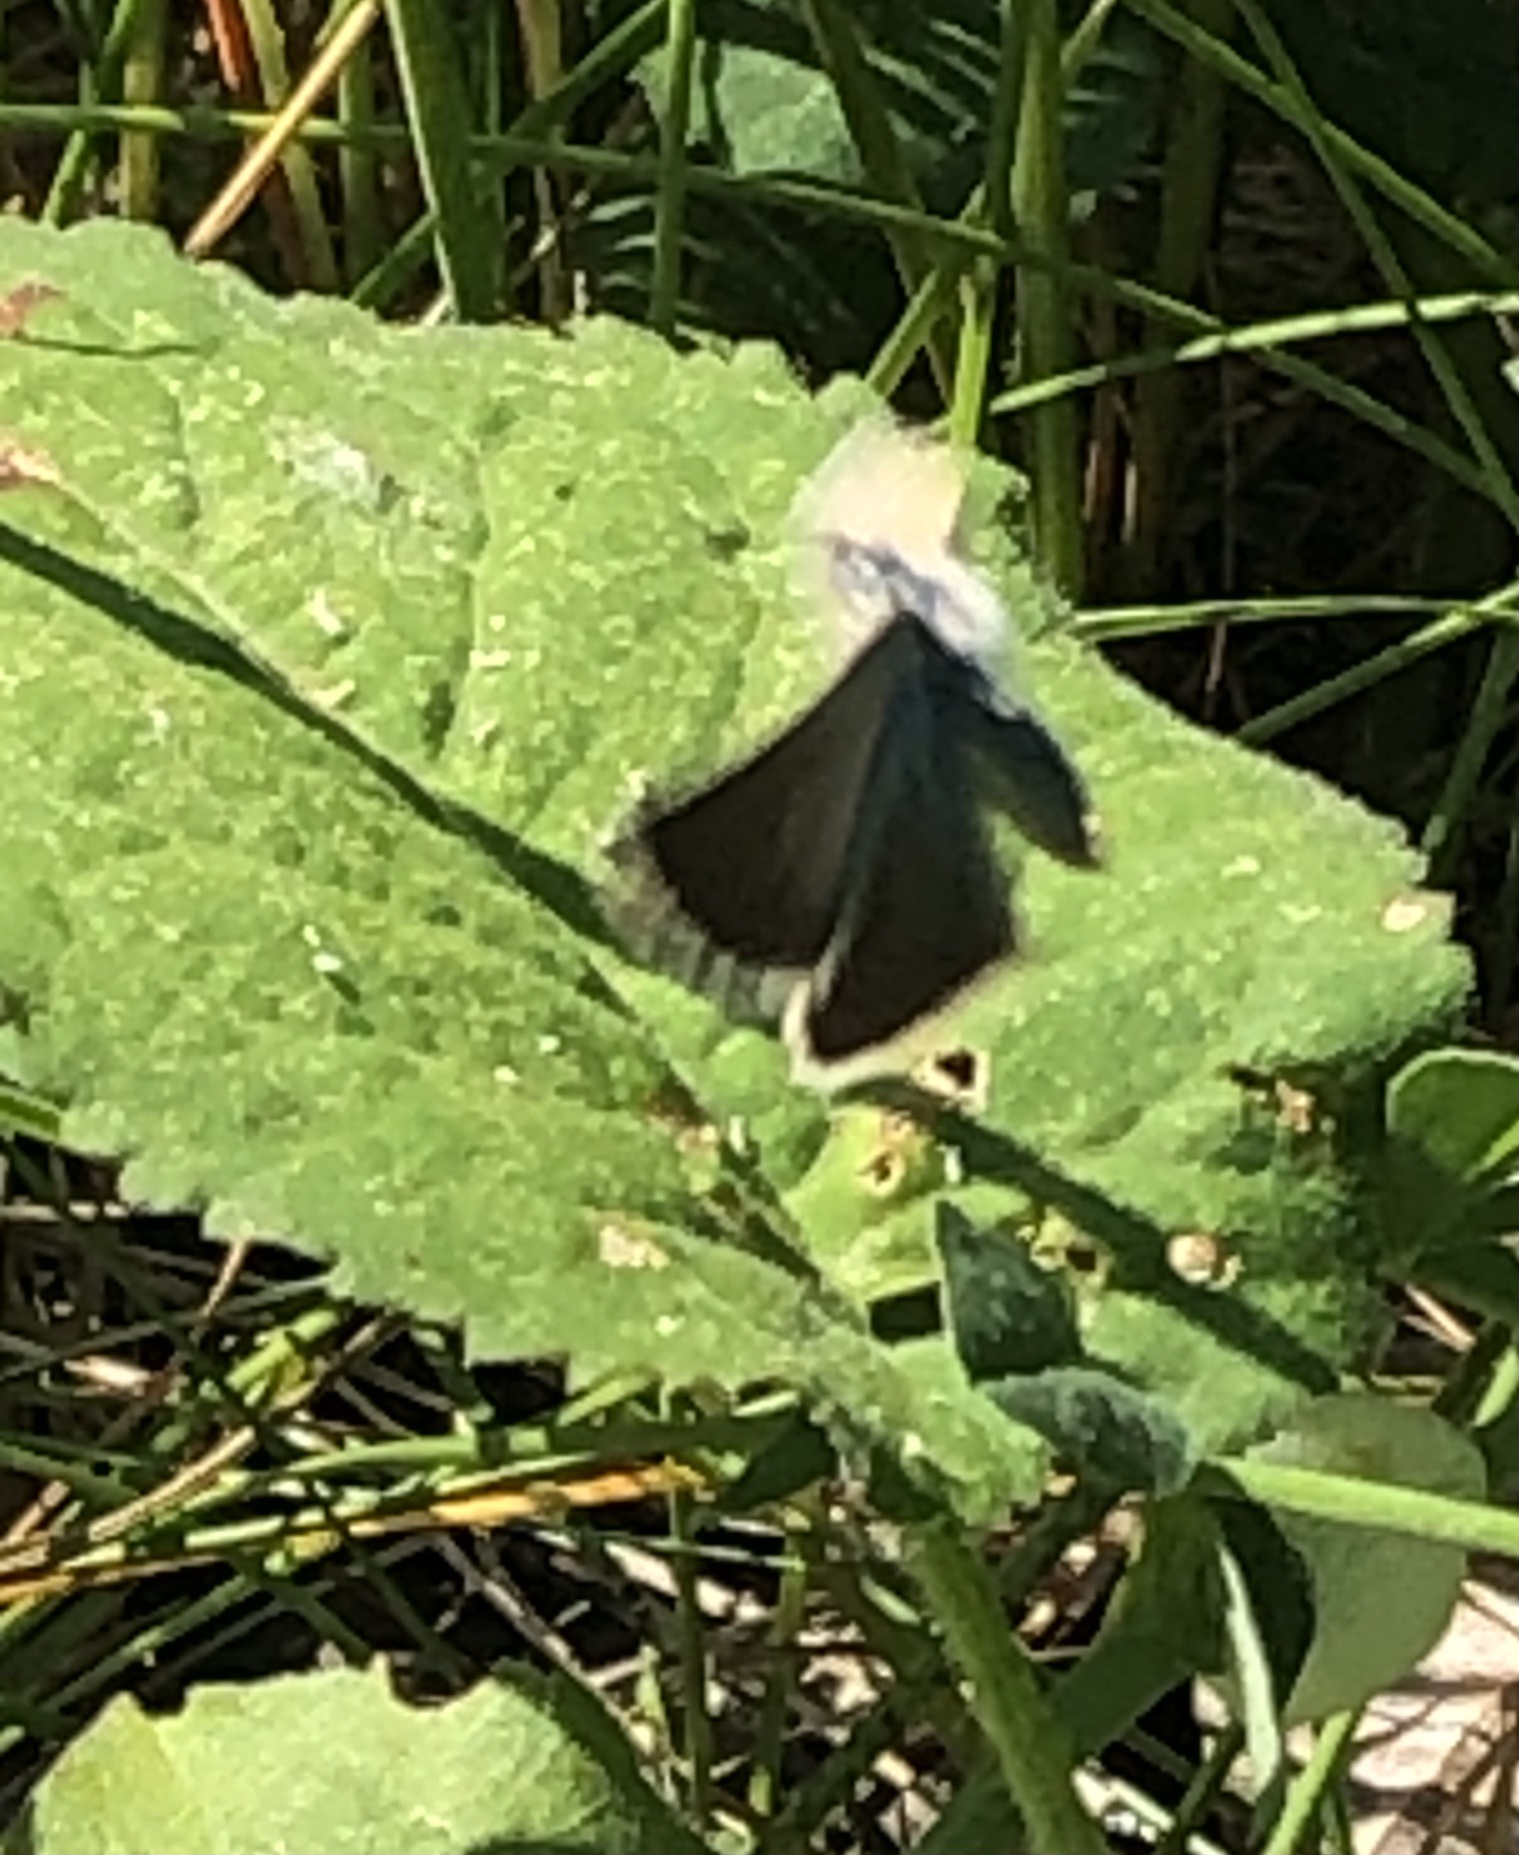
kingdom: Animalia
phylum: Arthropoda
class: Insecta
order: Lepidoptera
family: Lycaenidae
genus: Glaucopsyche
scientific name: Glaucopsyche lygdamus
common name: Silvery blue
